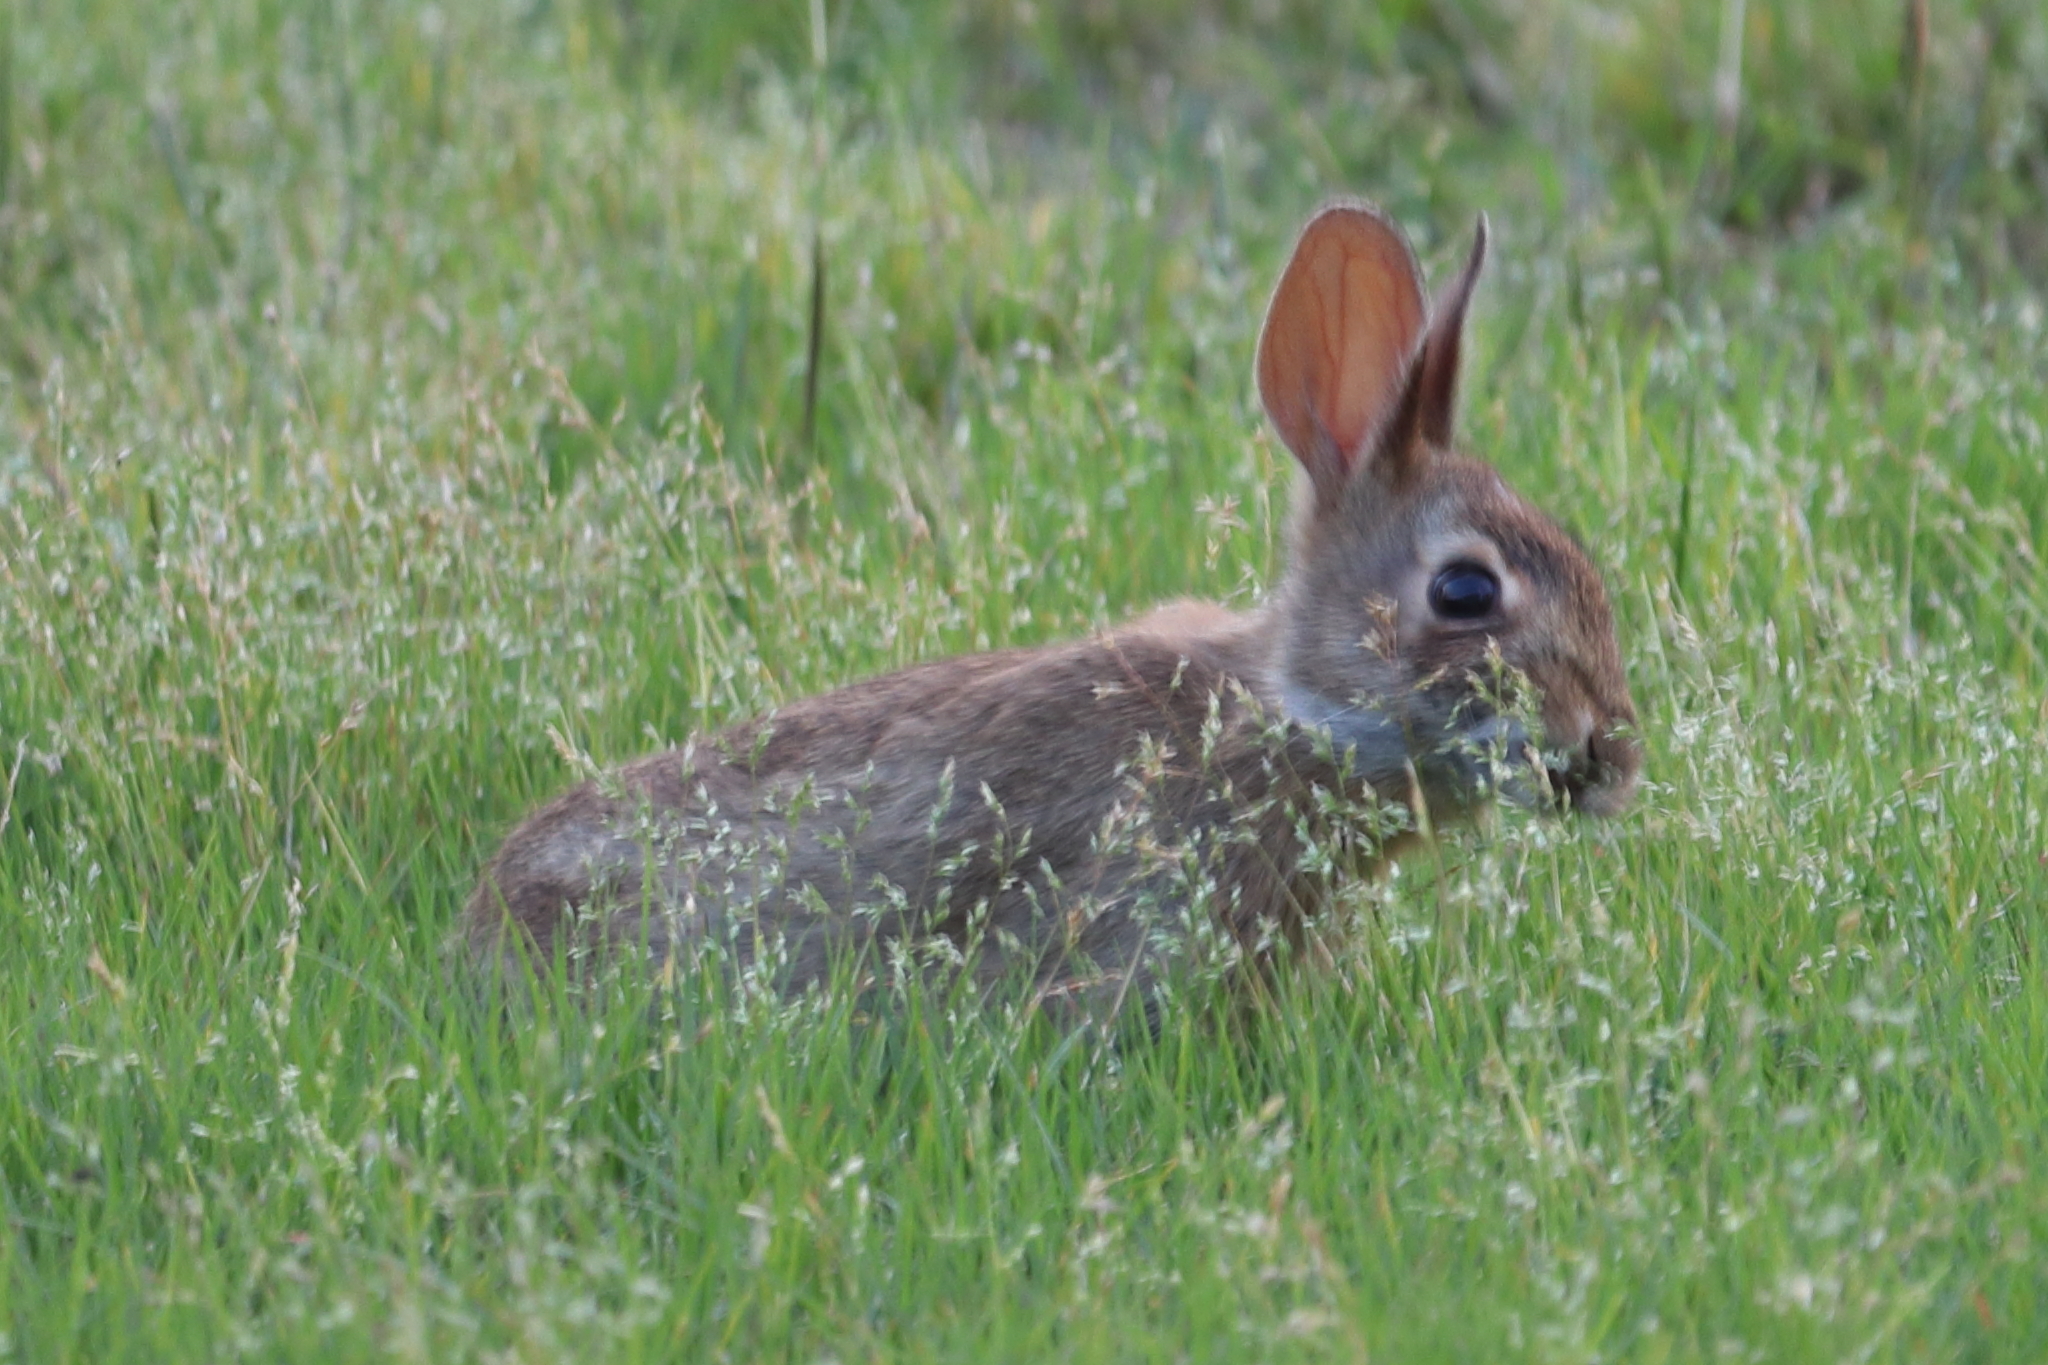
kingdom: Animalia
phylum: Chordata
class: Mammalia
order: Lagomorpha
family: Leporidae
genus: Sylvilagus
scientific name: Sylvilagus floridanus
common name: Eastern cottontail
